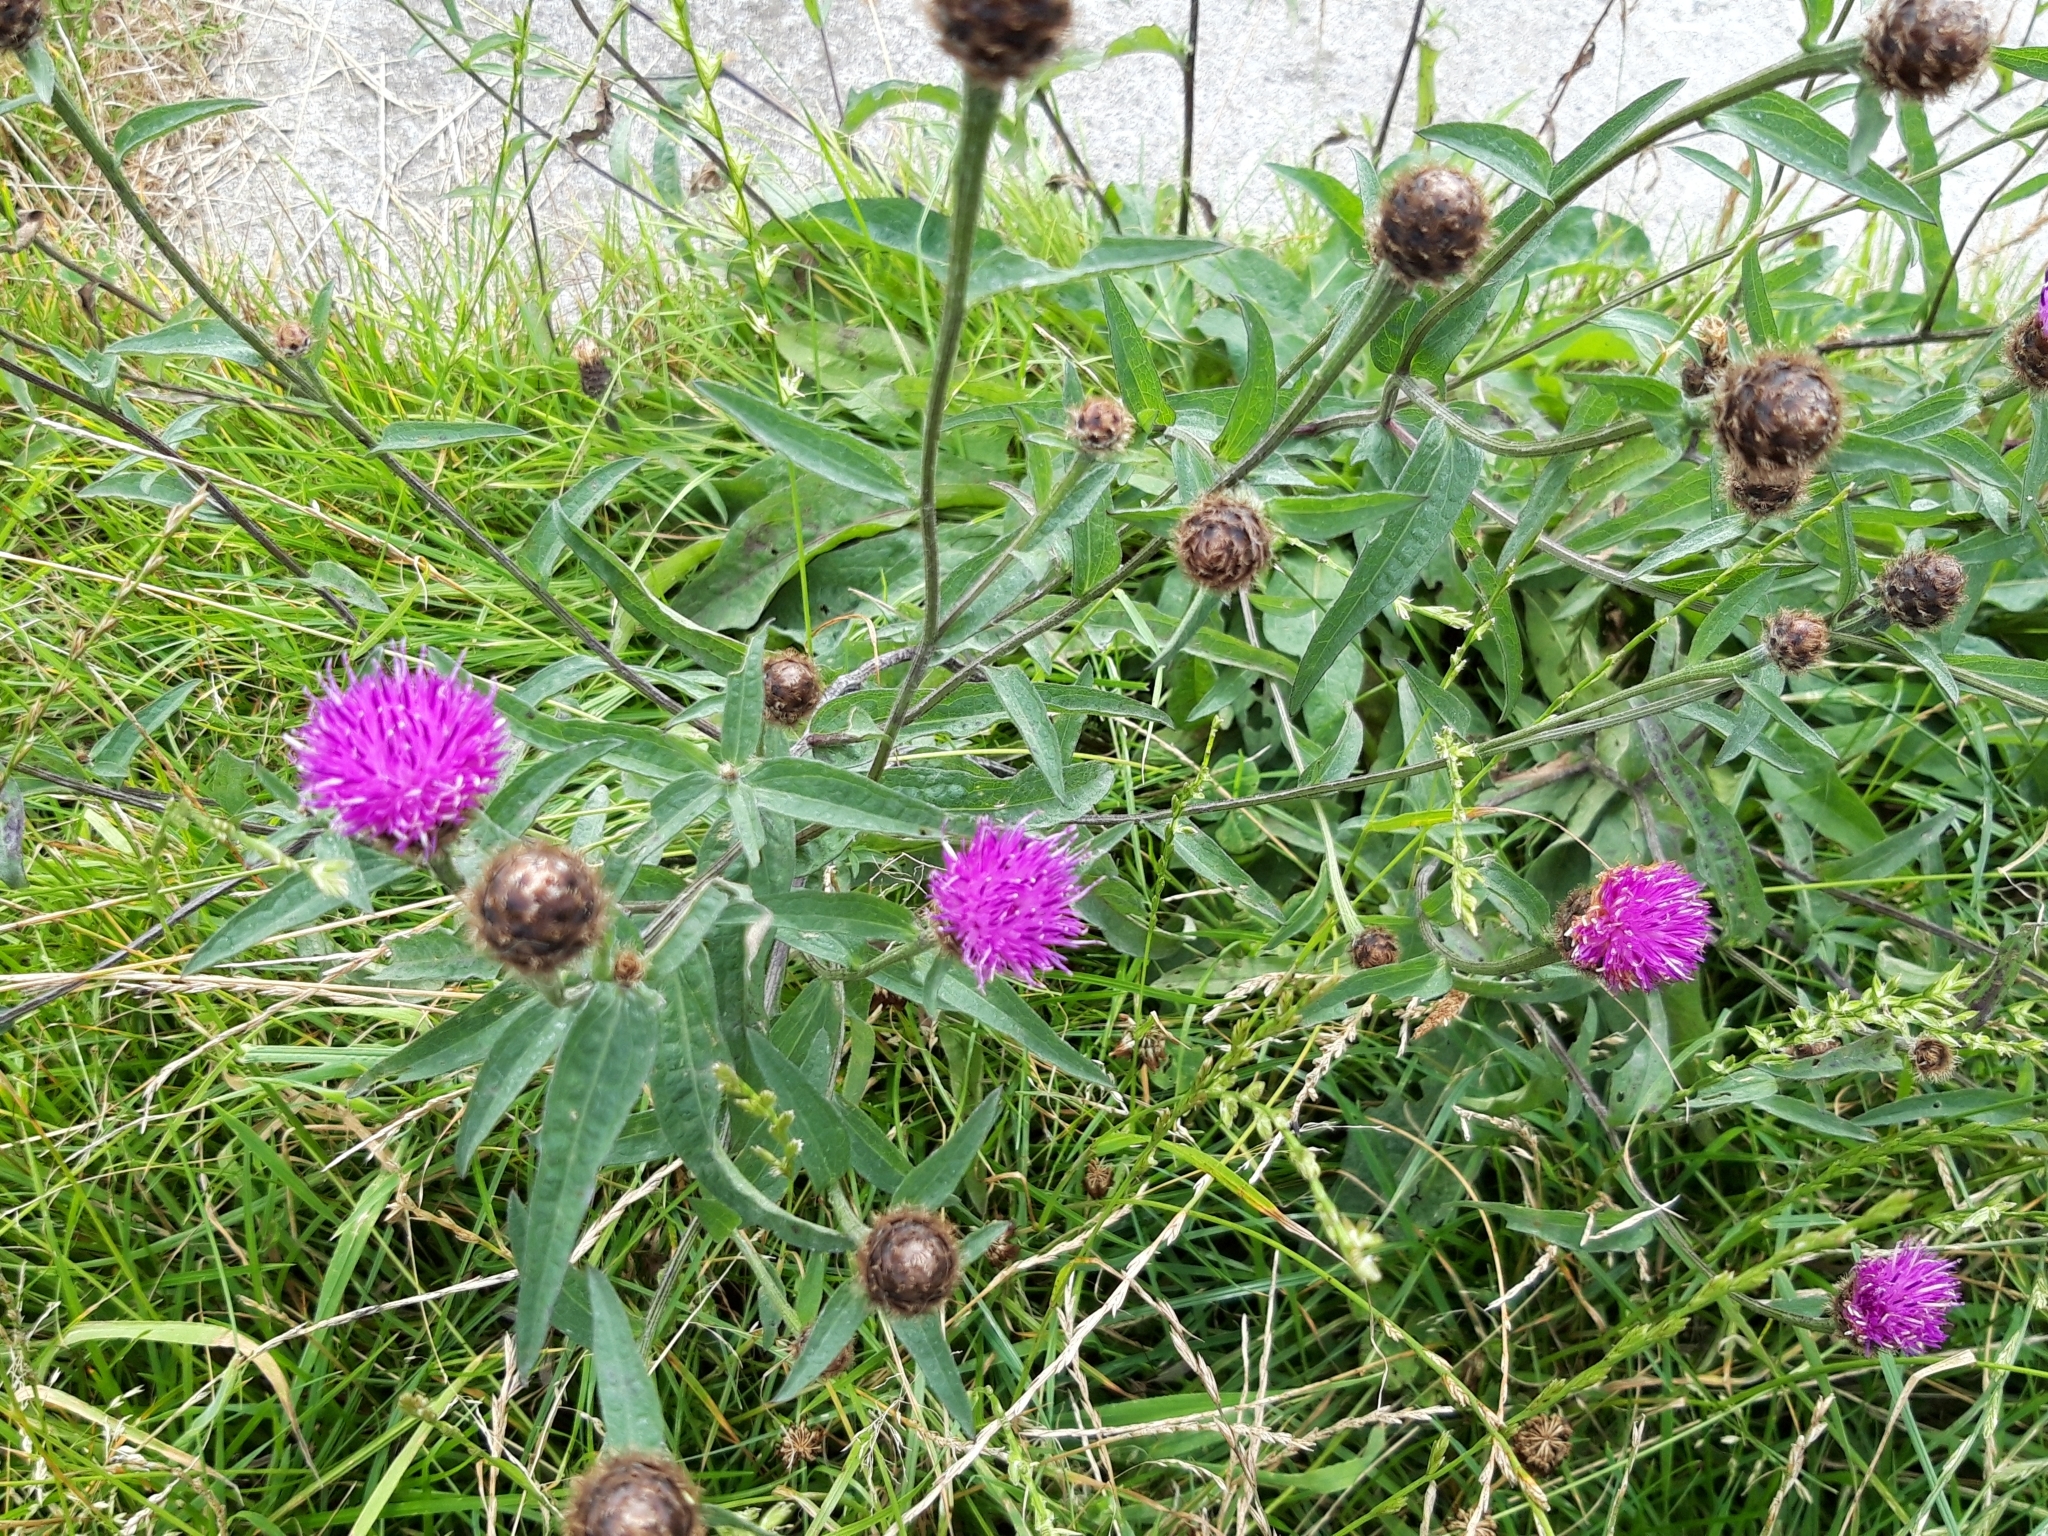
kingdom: Plantae
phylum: Tracheophyta
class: Magnoliopsida
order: Asterales
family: Asteraceae
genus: Centaurea
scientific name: Centaurea nigra
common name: Lesser knapweed
